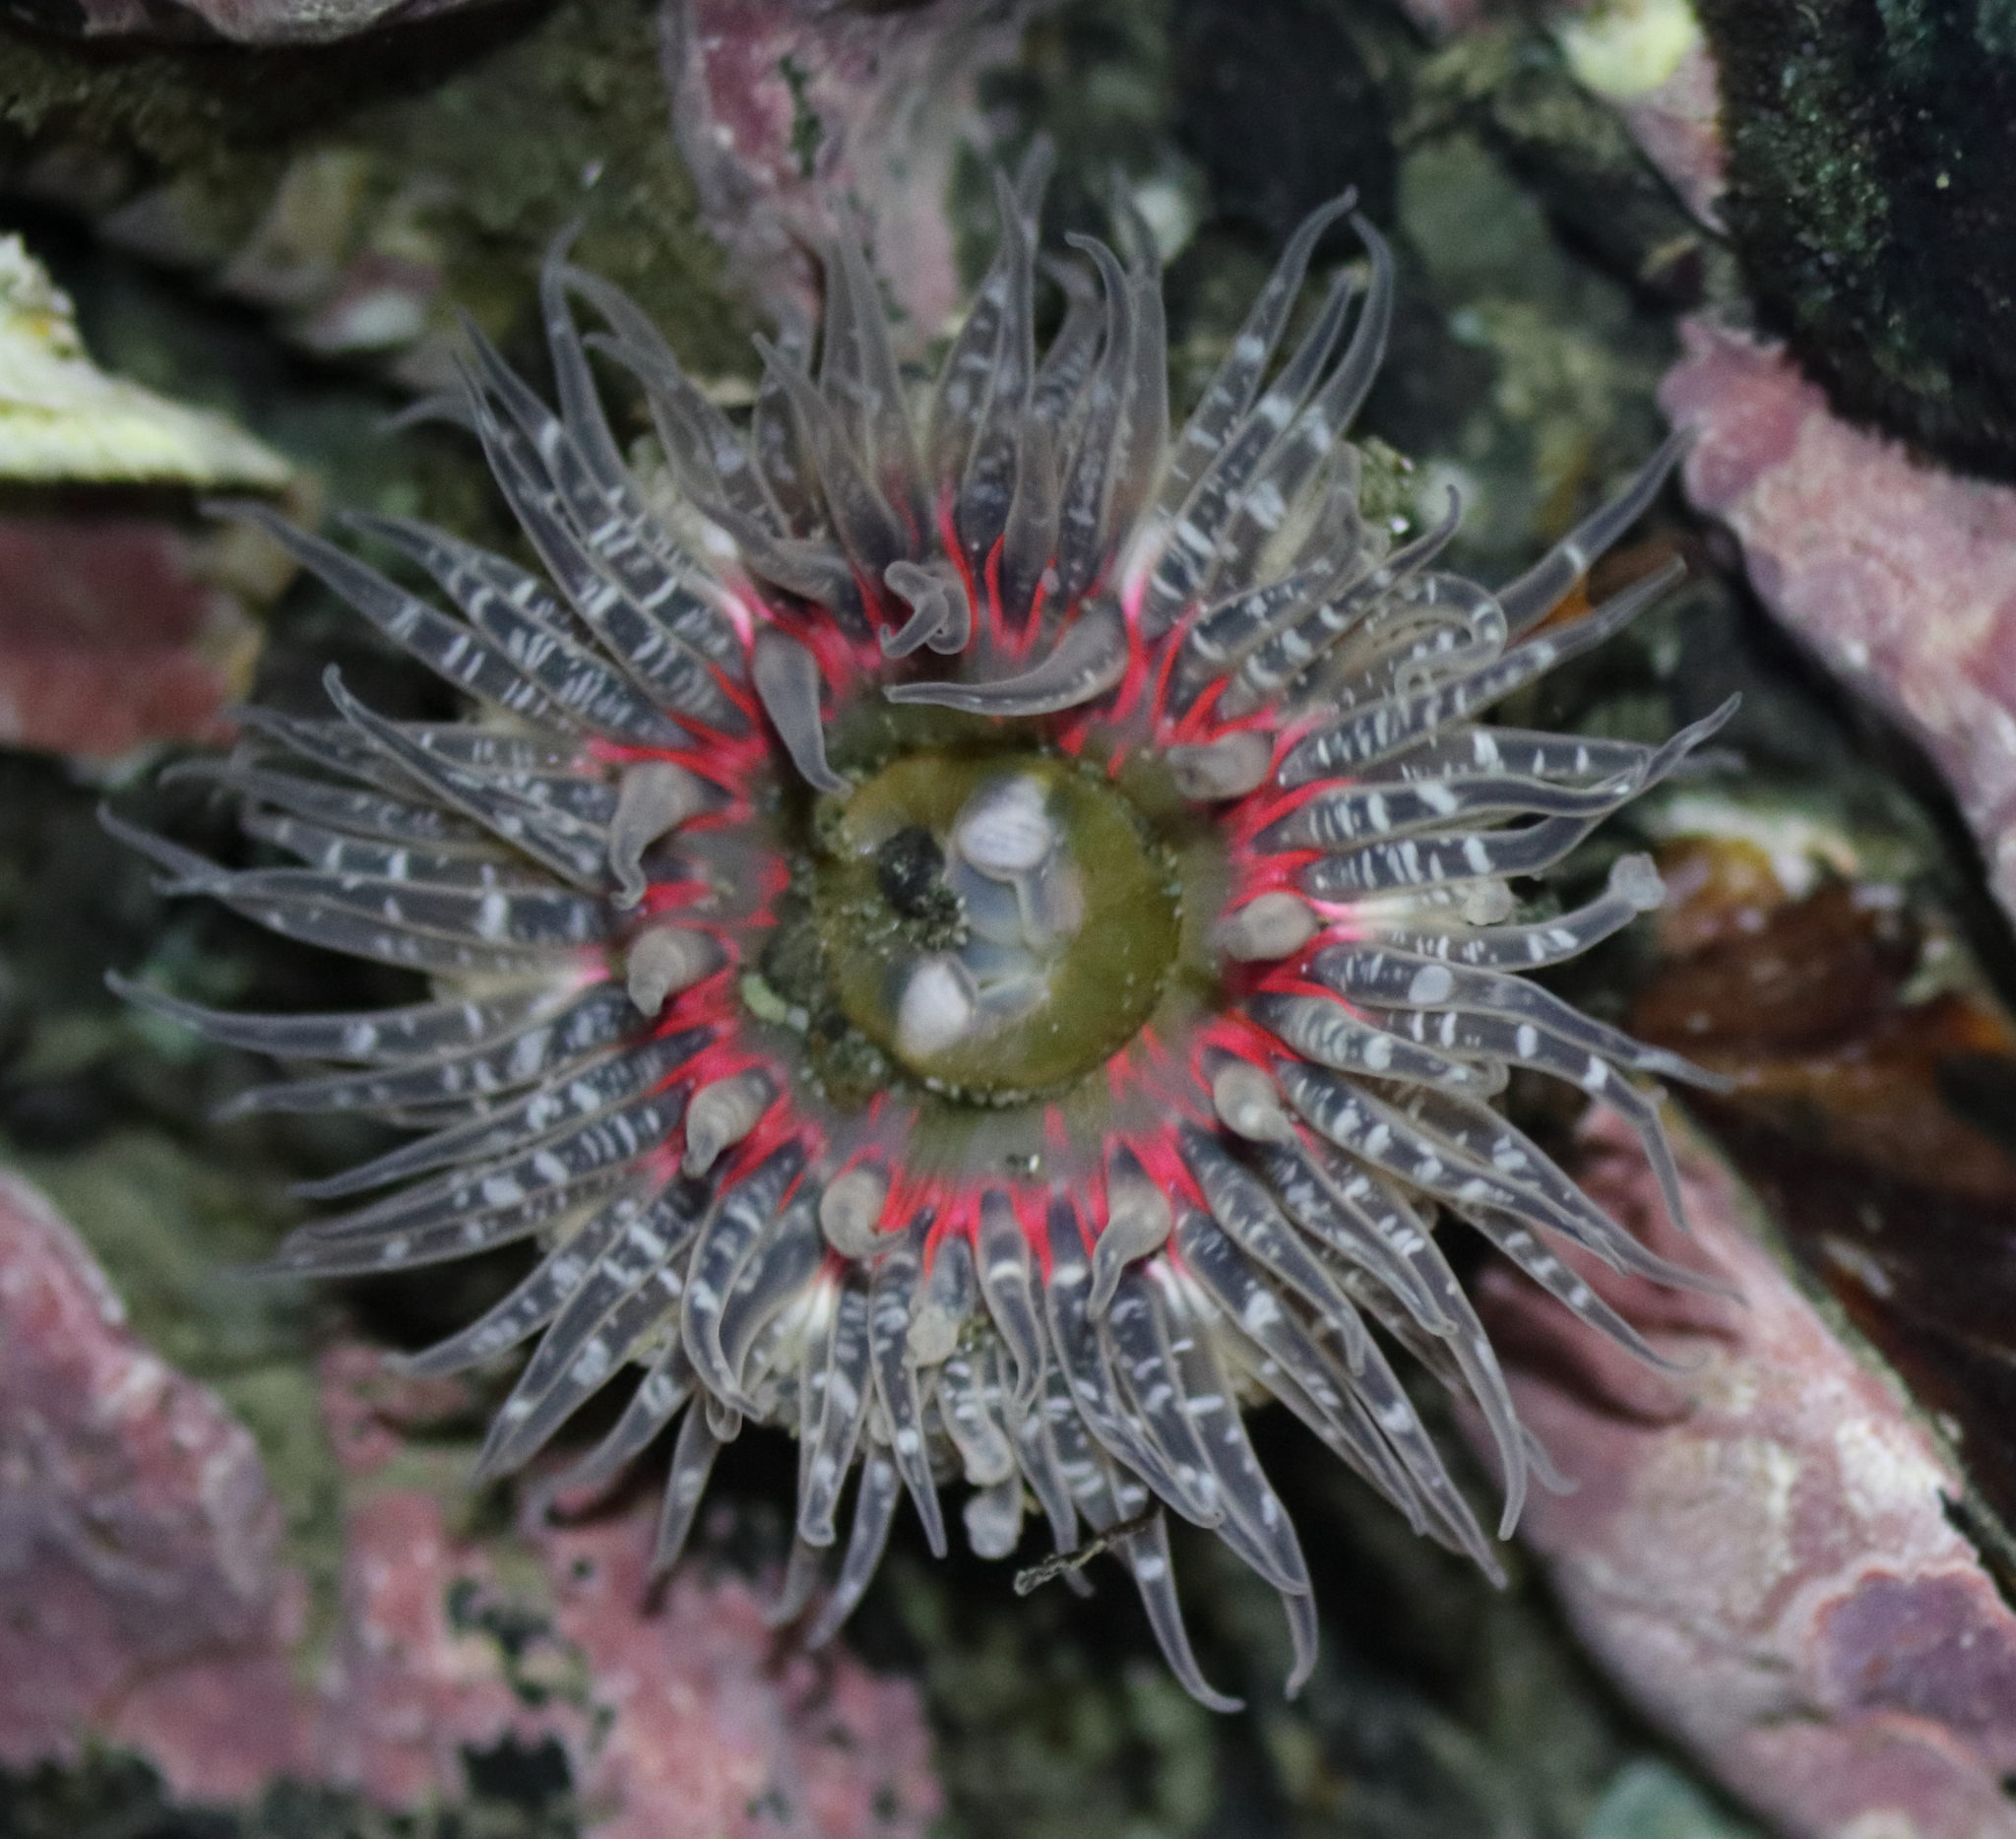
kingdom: Animalia
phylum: Cnidaria
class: Anthozoa
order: Actiniaria
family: Actiniidae
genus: Anthopleura
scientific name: Anthopleura artemisia
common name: Buried sea anemone
